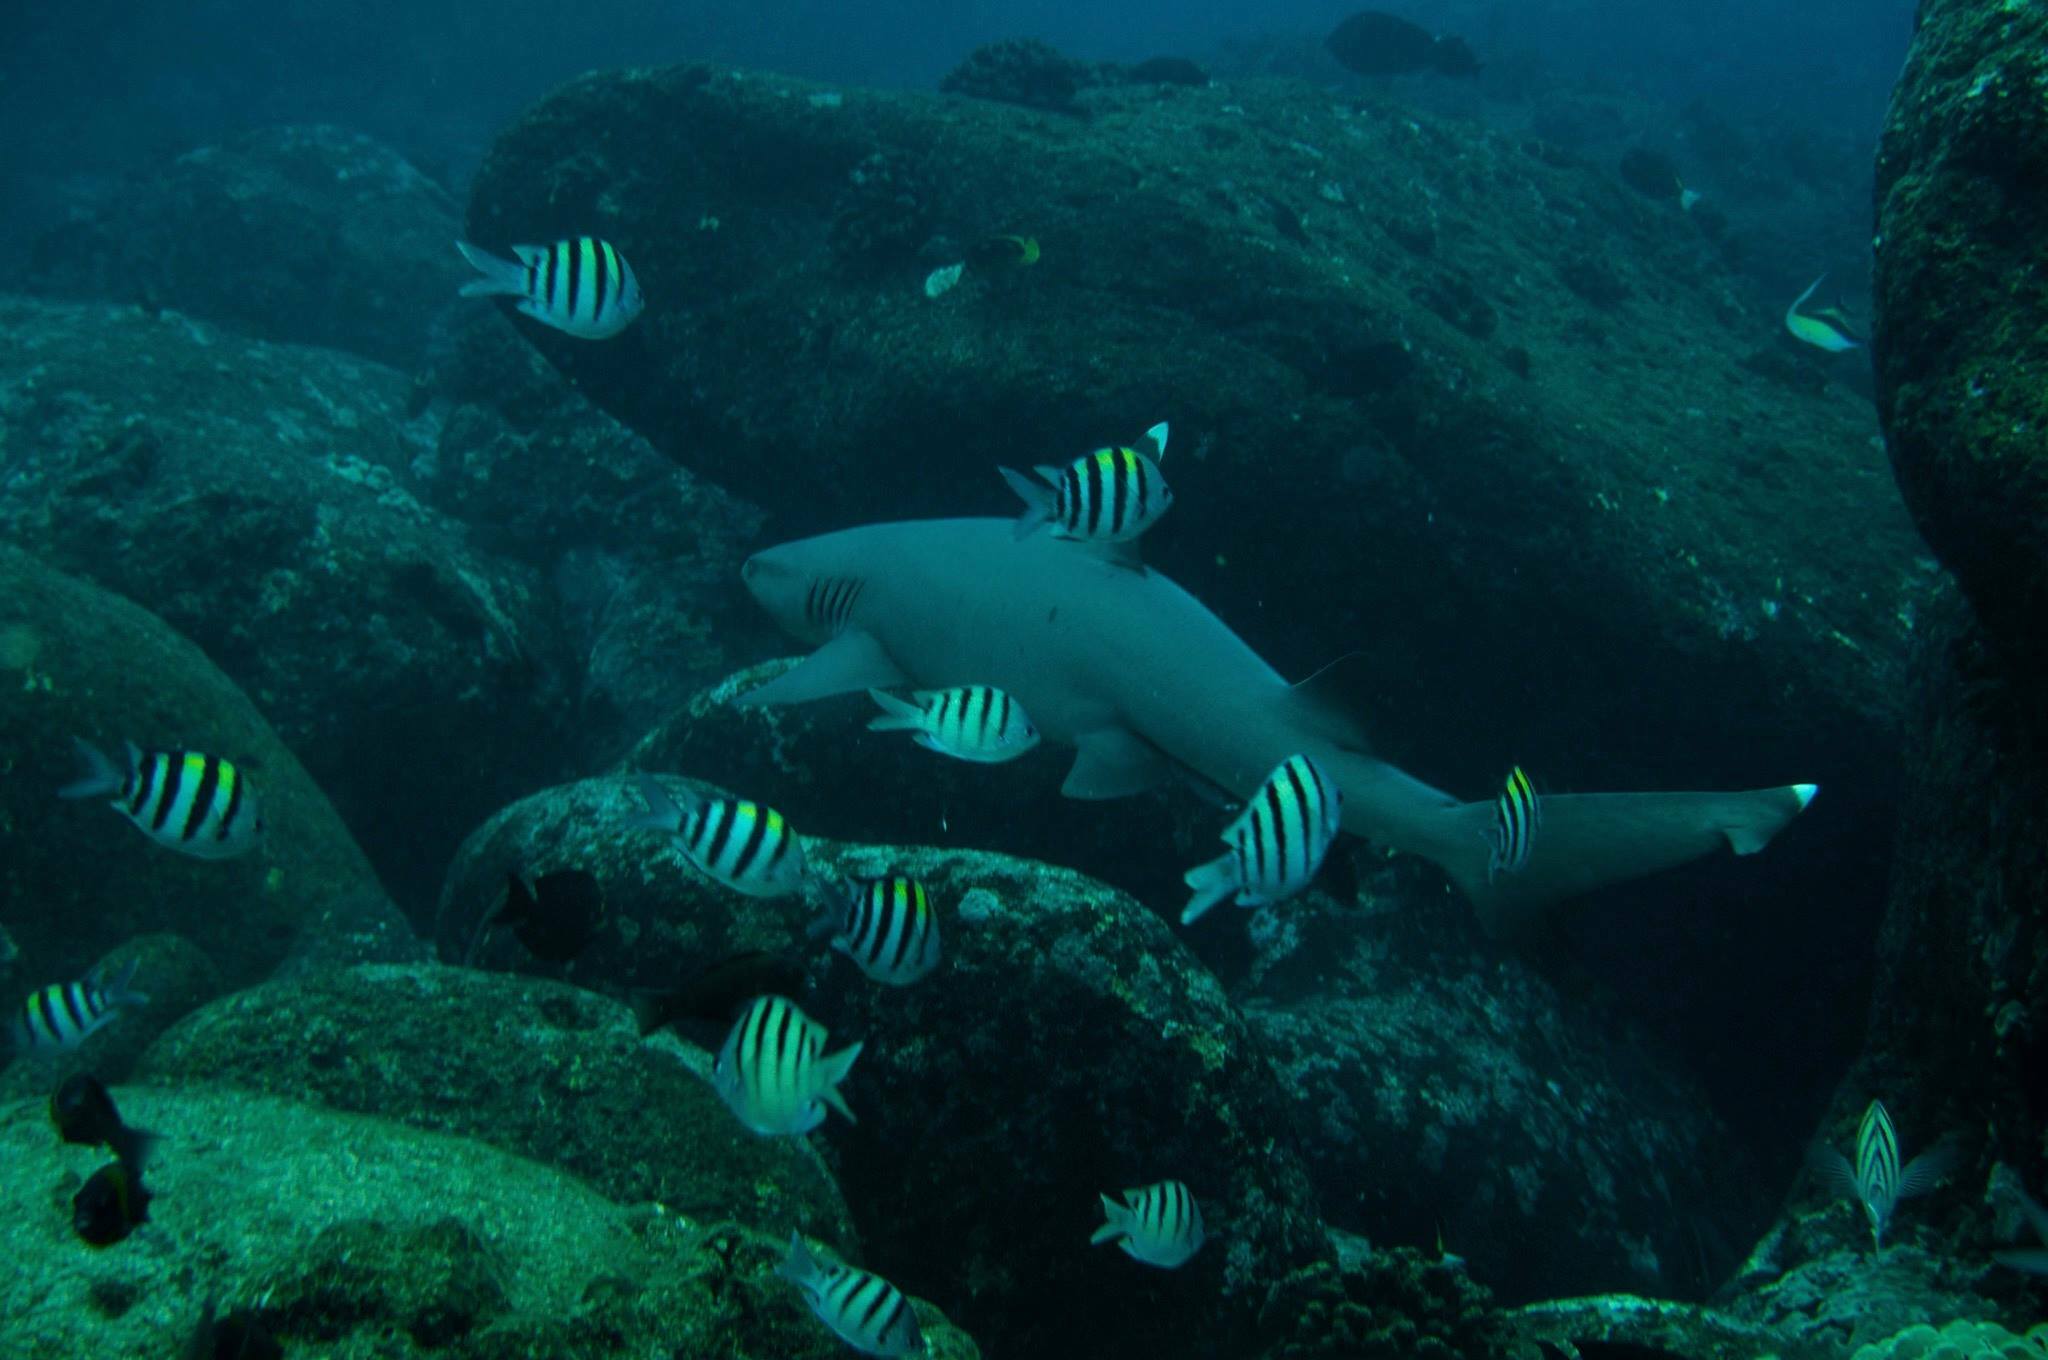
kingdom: Animalia
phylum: Chordata
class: Elasmobranchii
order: Carcharhiniformes
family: Carcharhinidae
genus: Triaenodon
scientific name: Triaenodon obesus
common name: Whitetip reef shark
